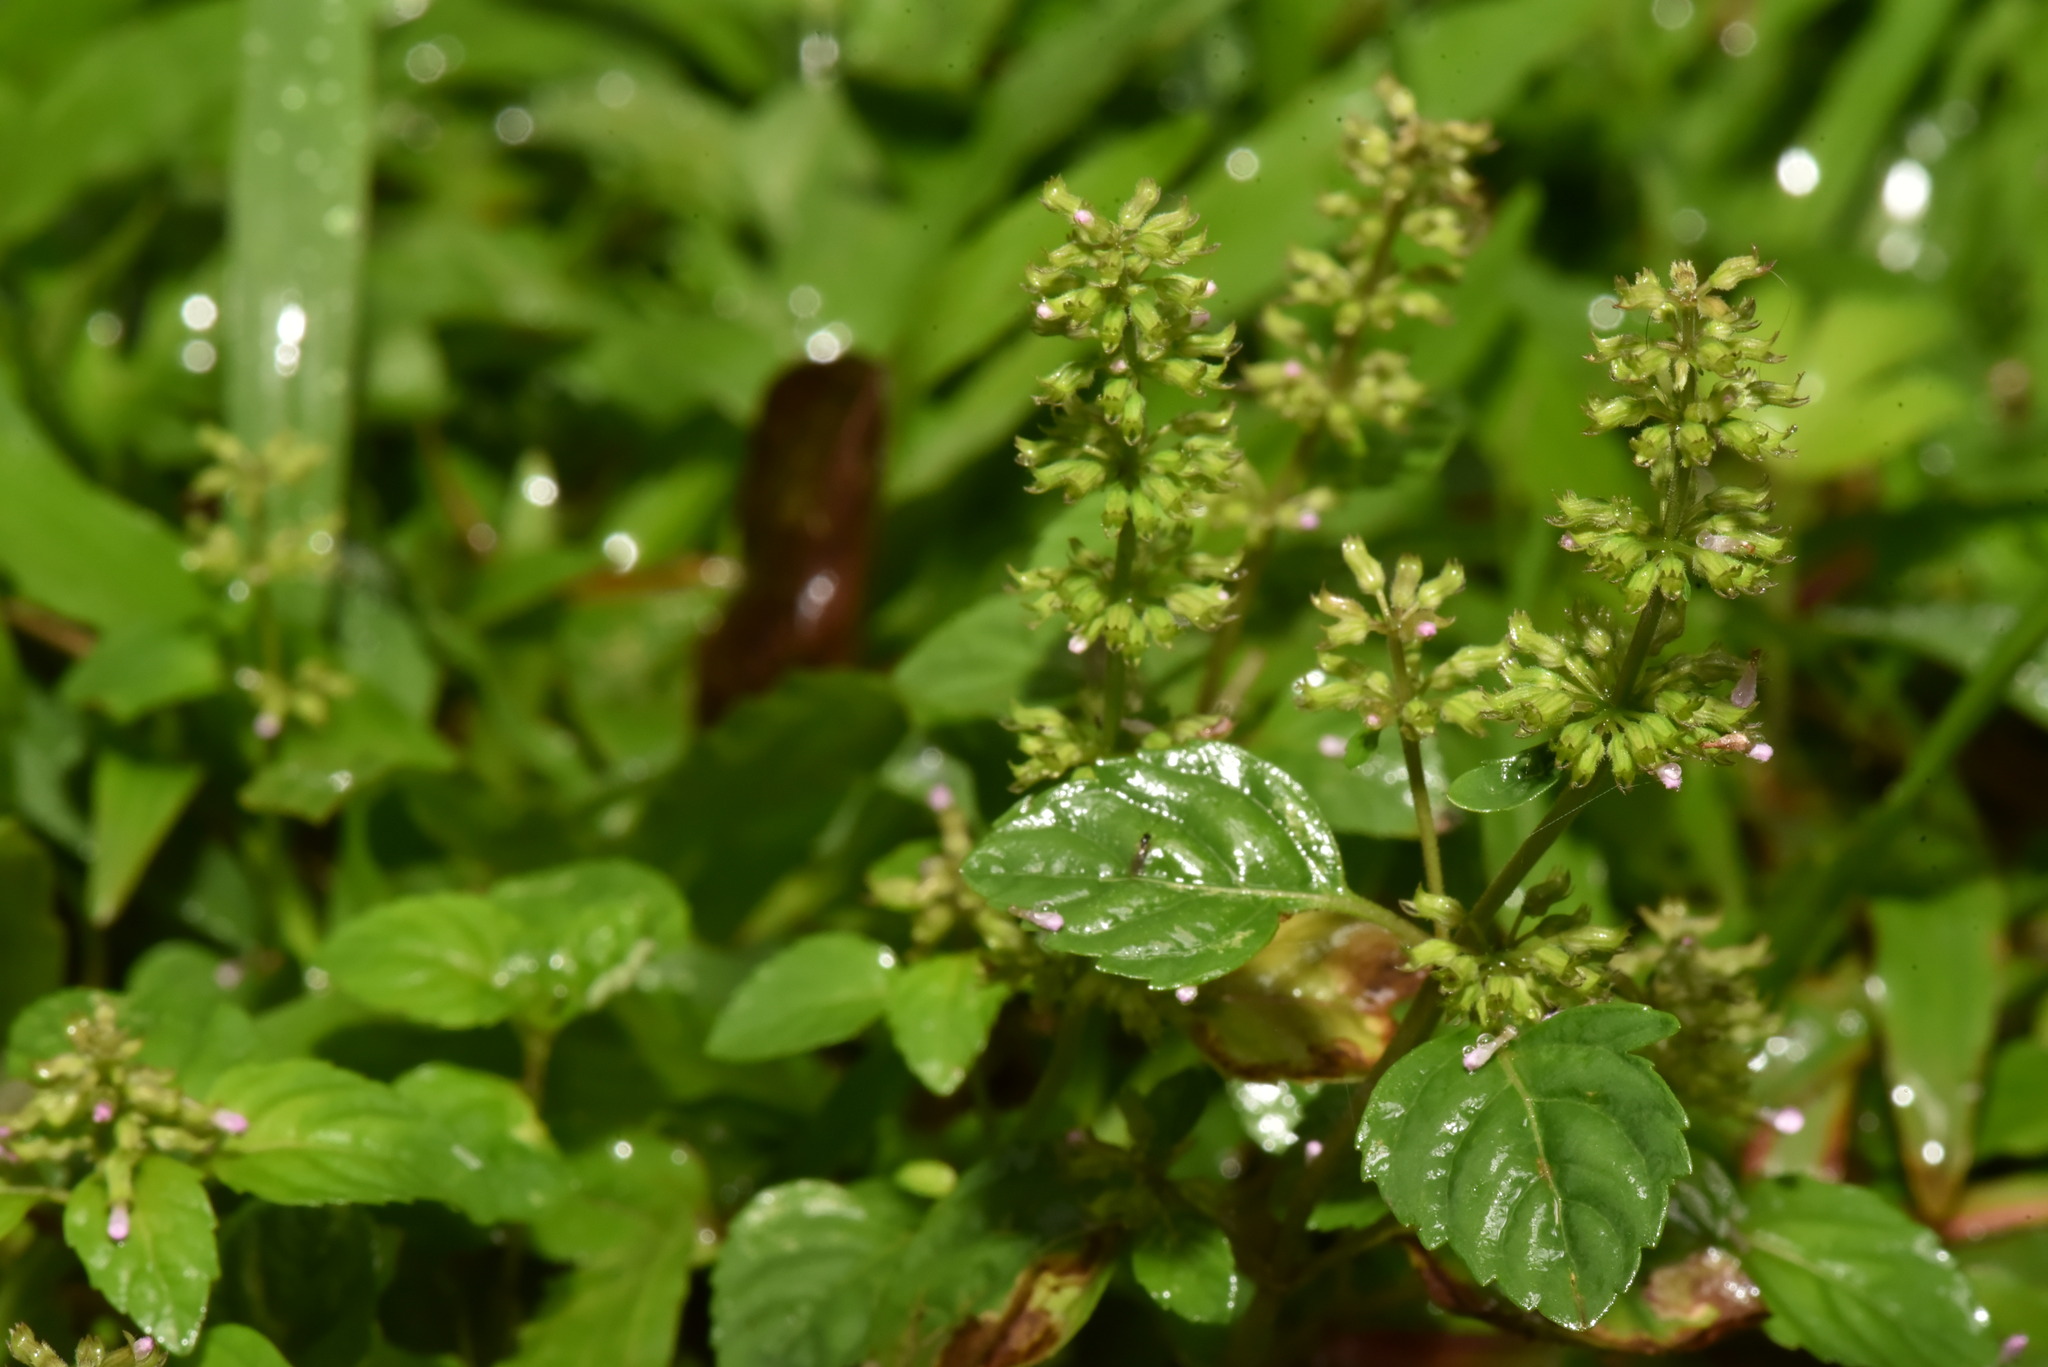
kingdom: Plantae
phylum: Tracheophyta
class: Magnoliopsida
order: Lamiales
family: Lamiaceae
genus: Clinopodium
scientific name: Clinopodium gracile
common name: Slender wild basil
